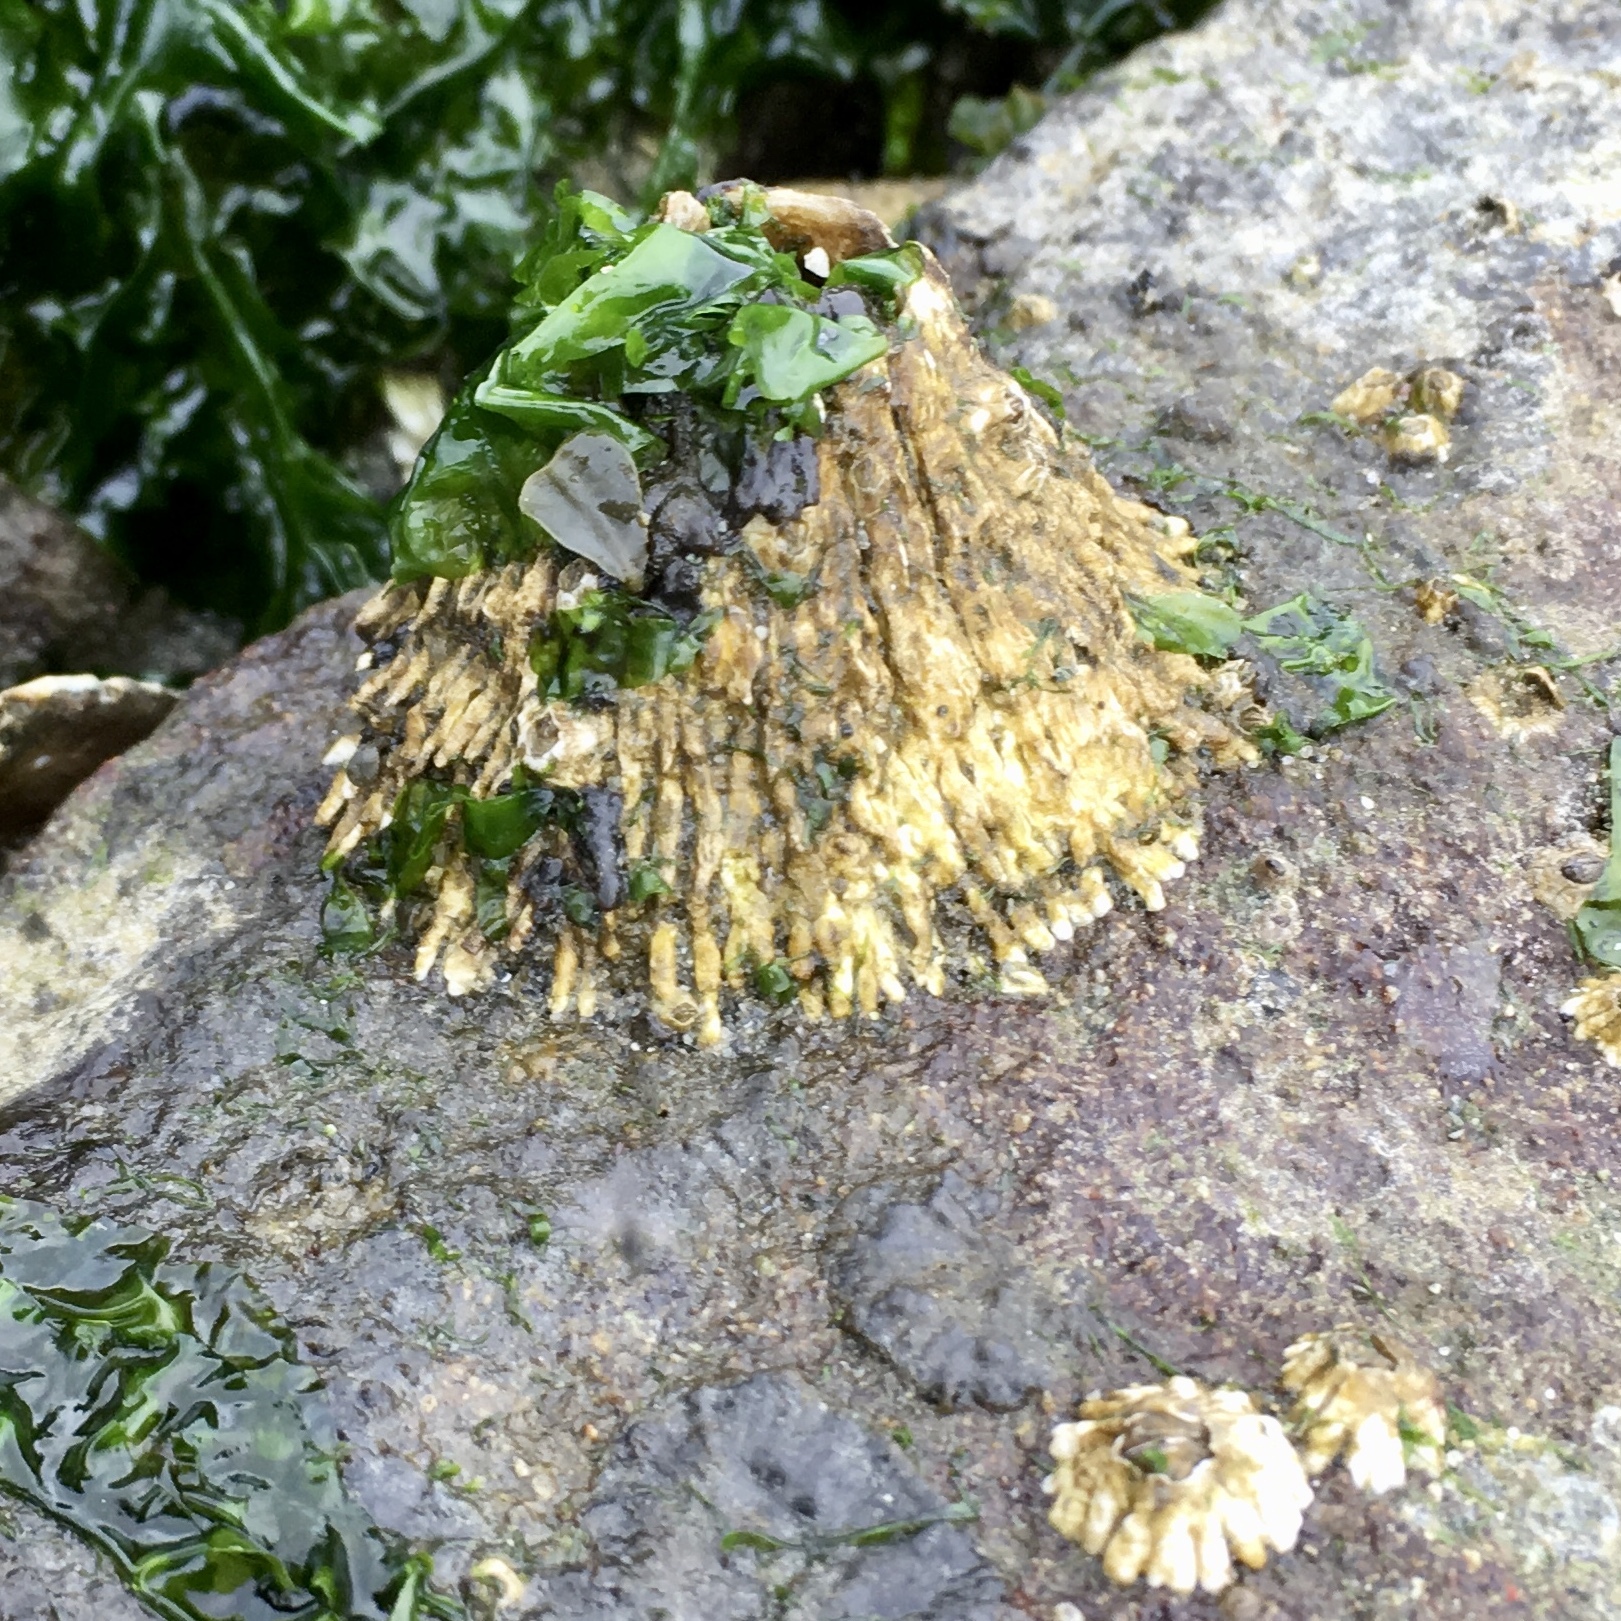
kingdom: Animalia
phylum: Arthropoda
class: Maxillopoda
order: Sessilia
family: Archaeobalanidae
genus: Semibalanus
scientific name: Semibalanus cariosus
